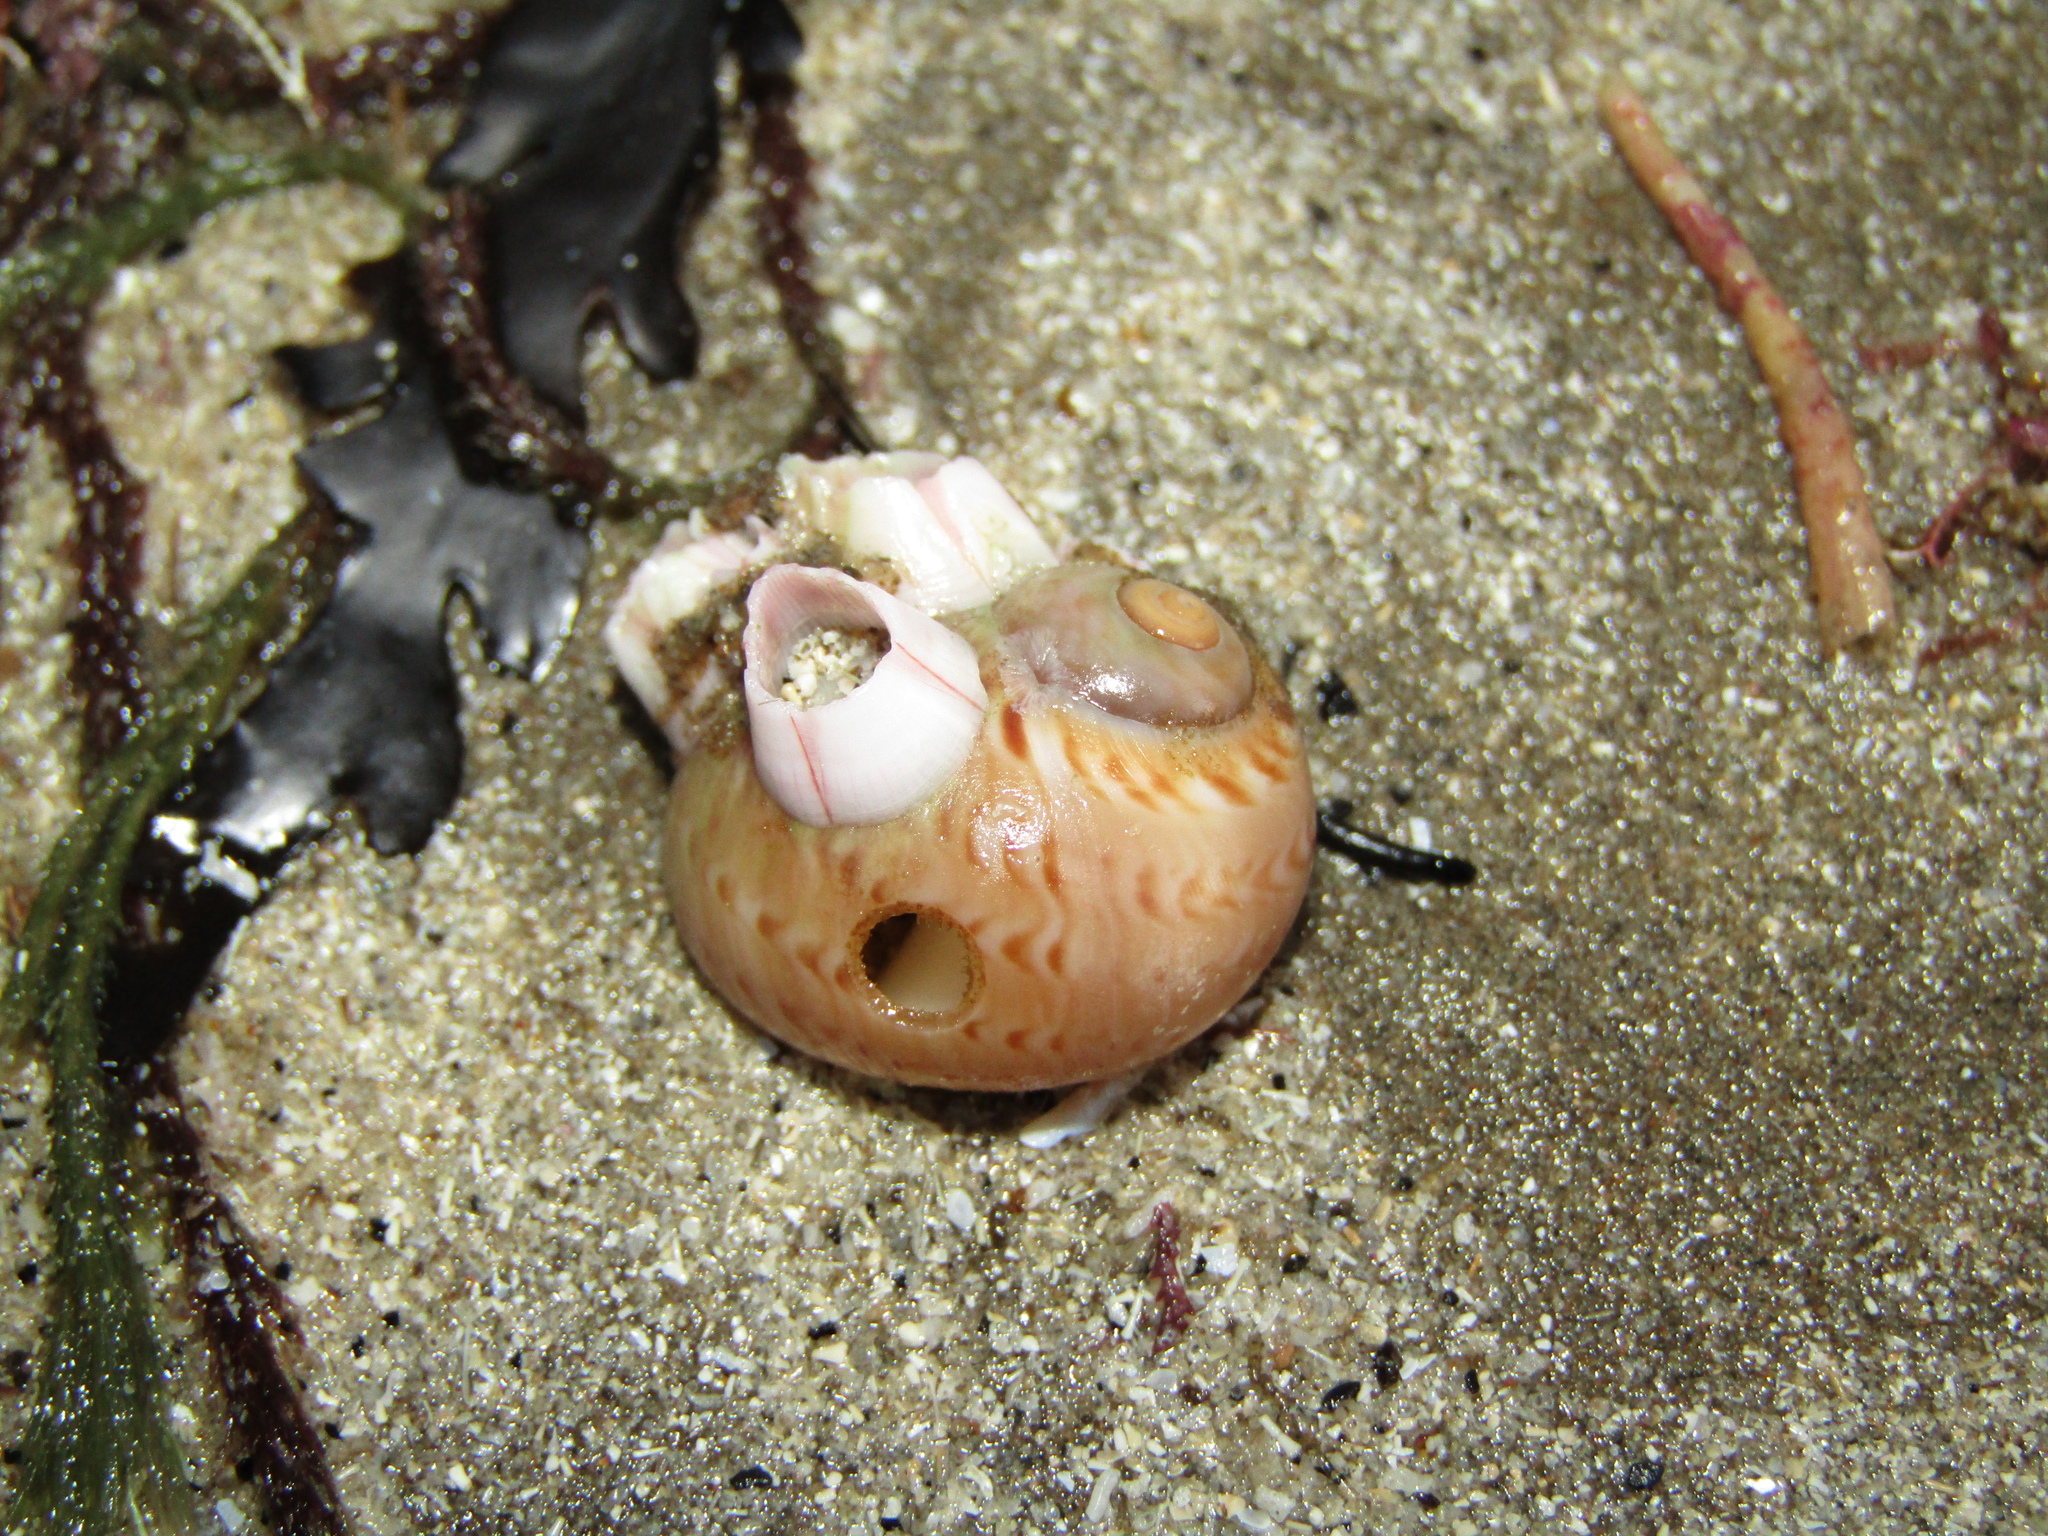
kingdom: Animalia
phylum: Mollusca
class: Gastropoda
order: Littorinimorpha
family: Naticidae
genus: Tanea
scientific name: Tanea zelandica
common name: New zealand moonsnail
